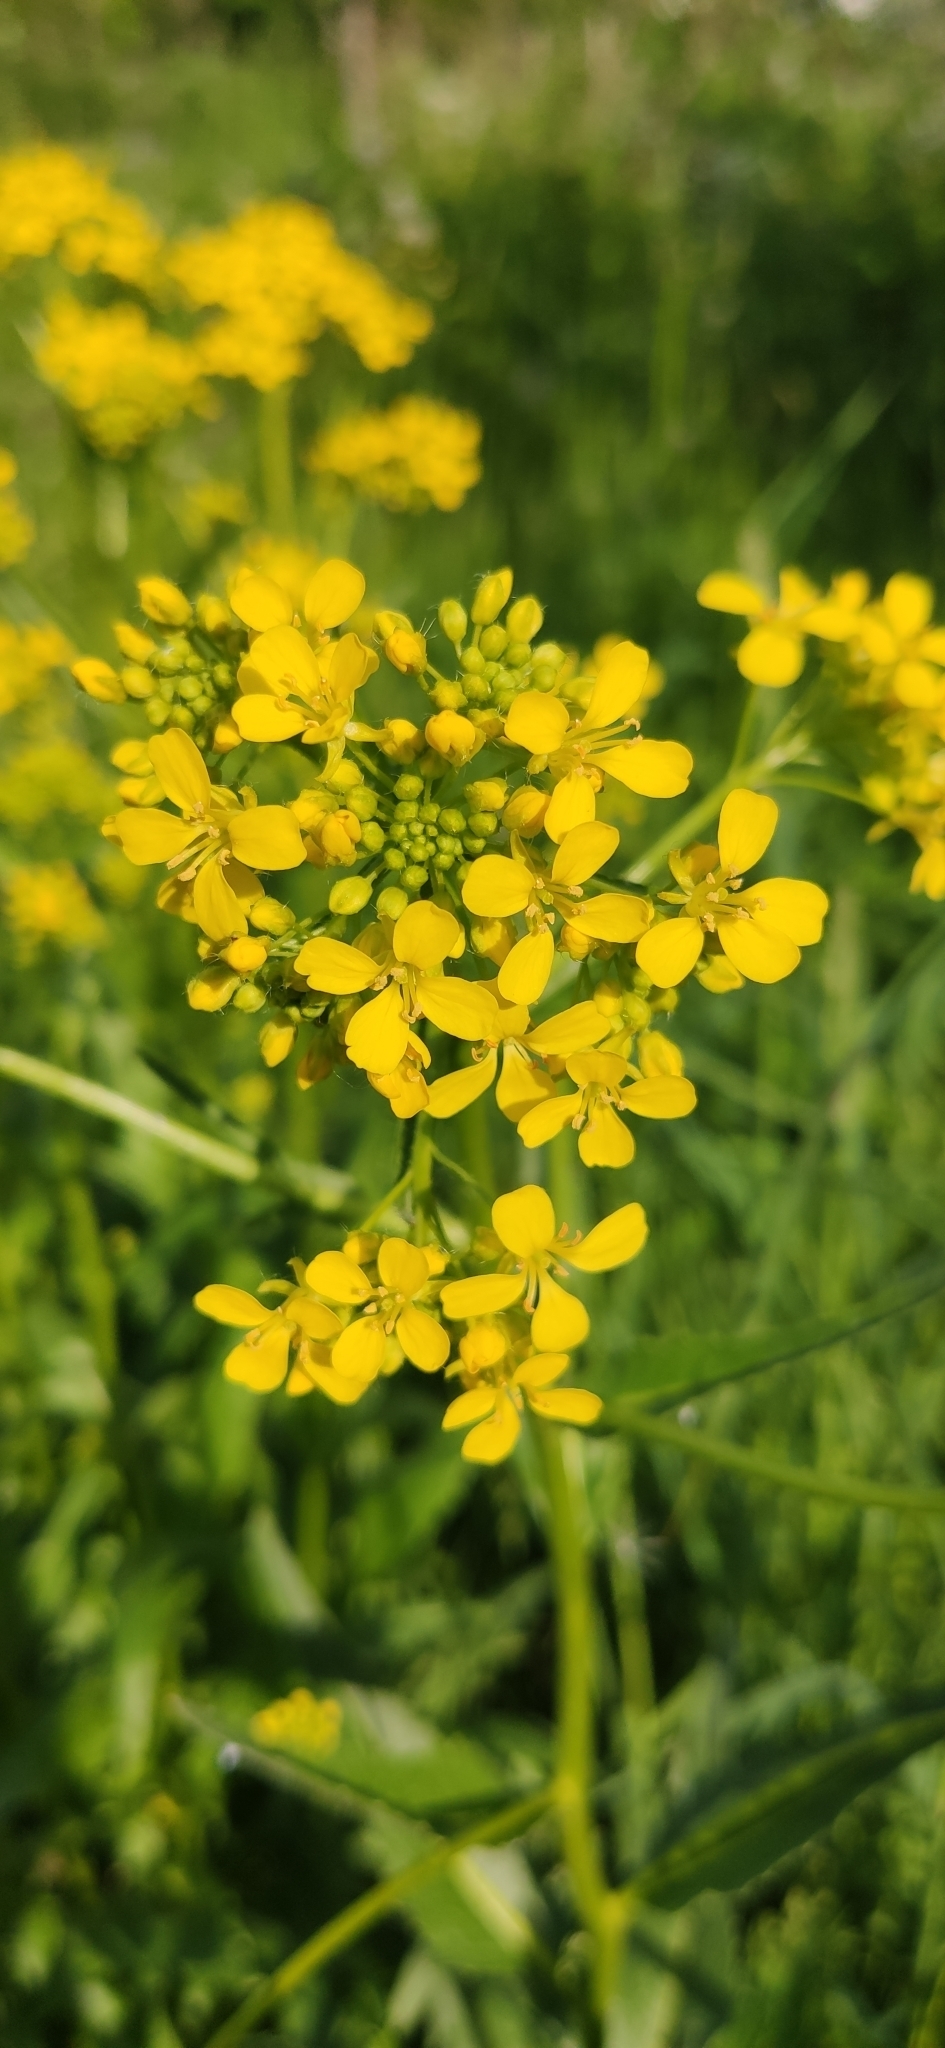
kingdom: Plantae
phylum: Tracheophyta
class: Magnoliopsida
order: Brassicales
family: Brassicaceae
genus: Bunias
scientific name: Bunias orientalis
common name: Warty-cabbage
